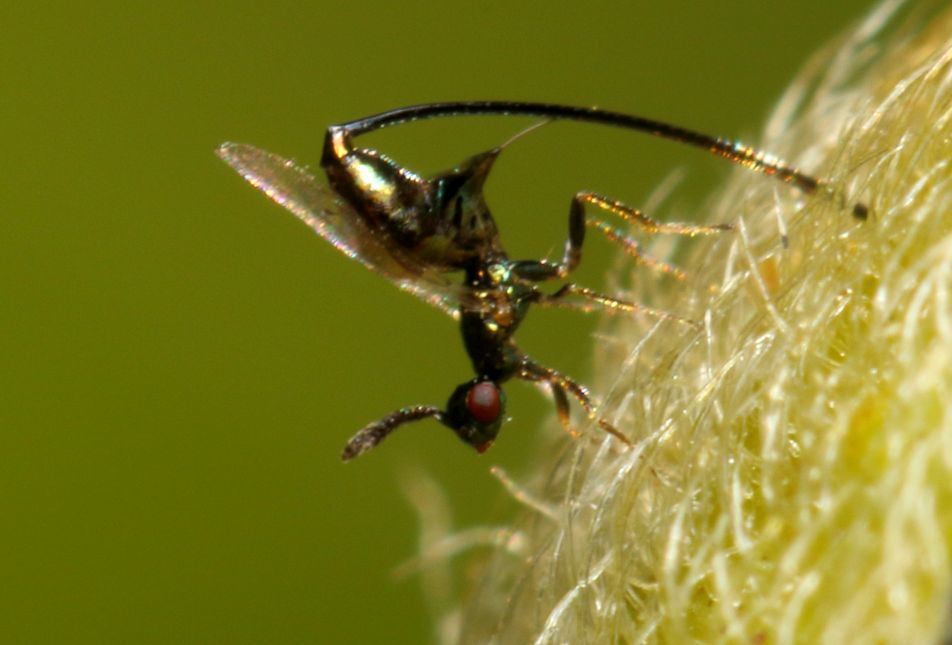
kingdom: Animalia
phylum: Arthropoda
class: Insecta
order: Hymenoptera
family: Agaonidae
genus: Sycoscapter
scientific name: Sycoscapter
